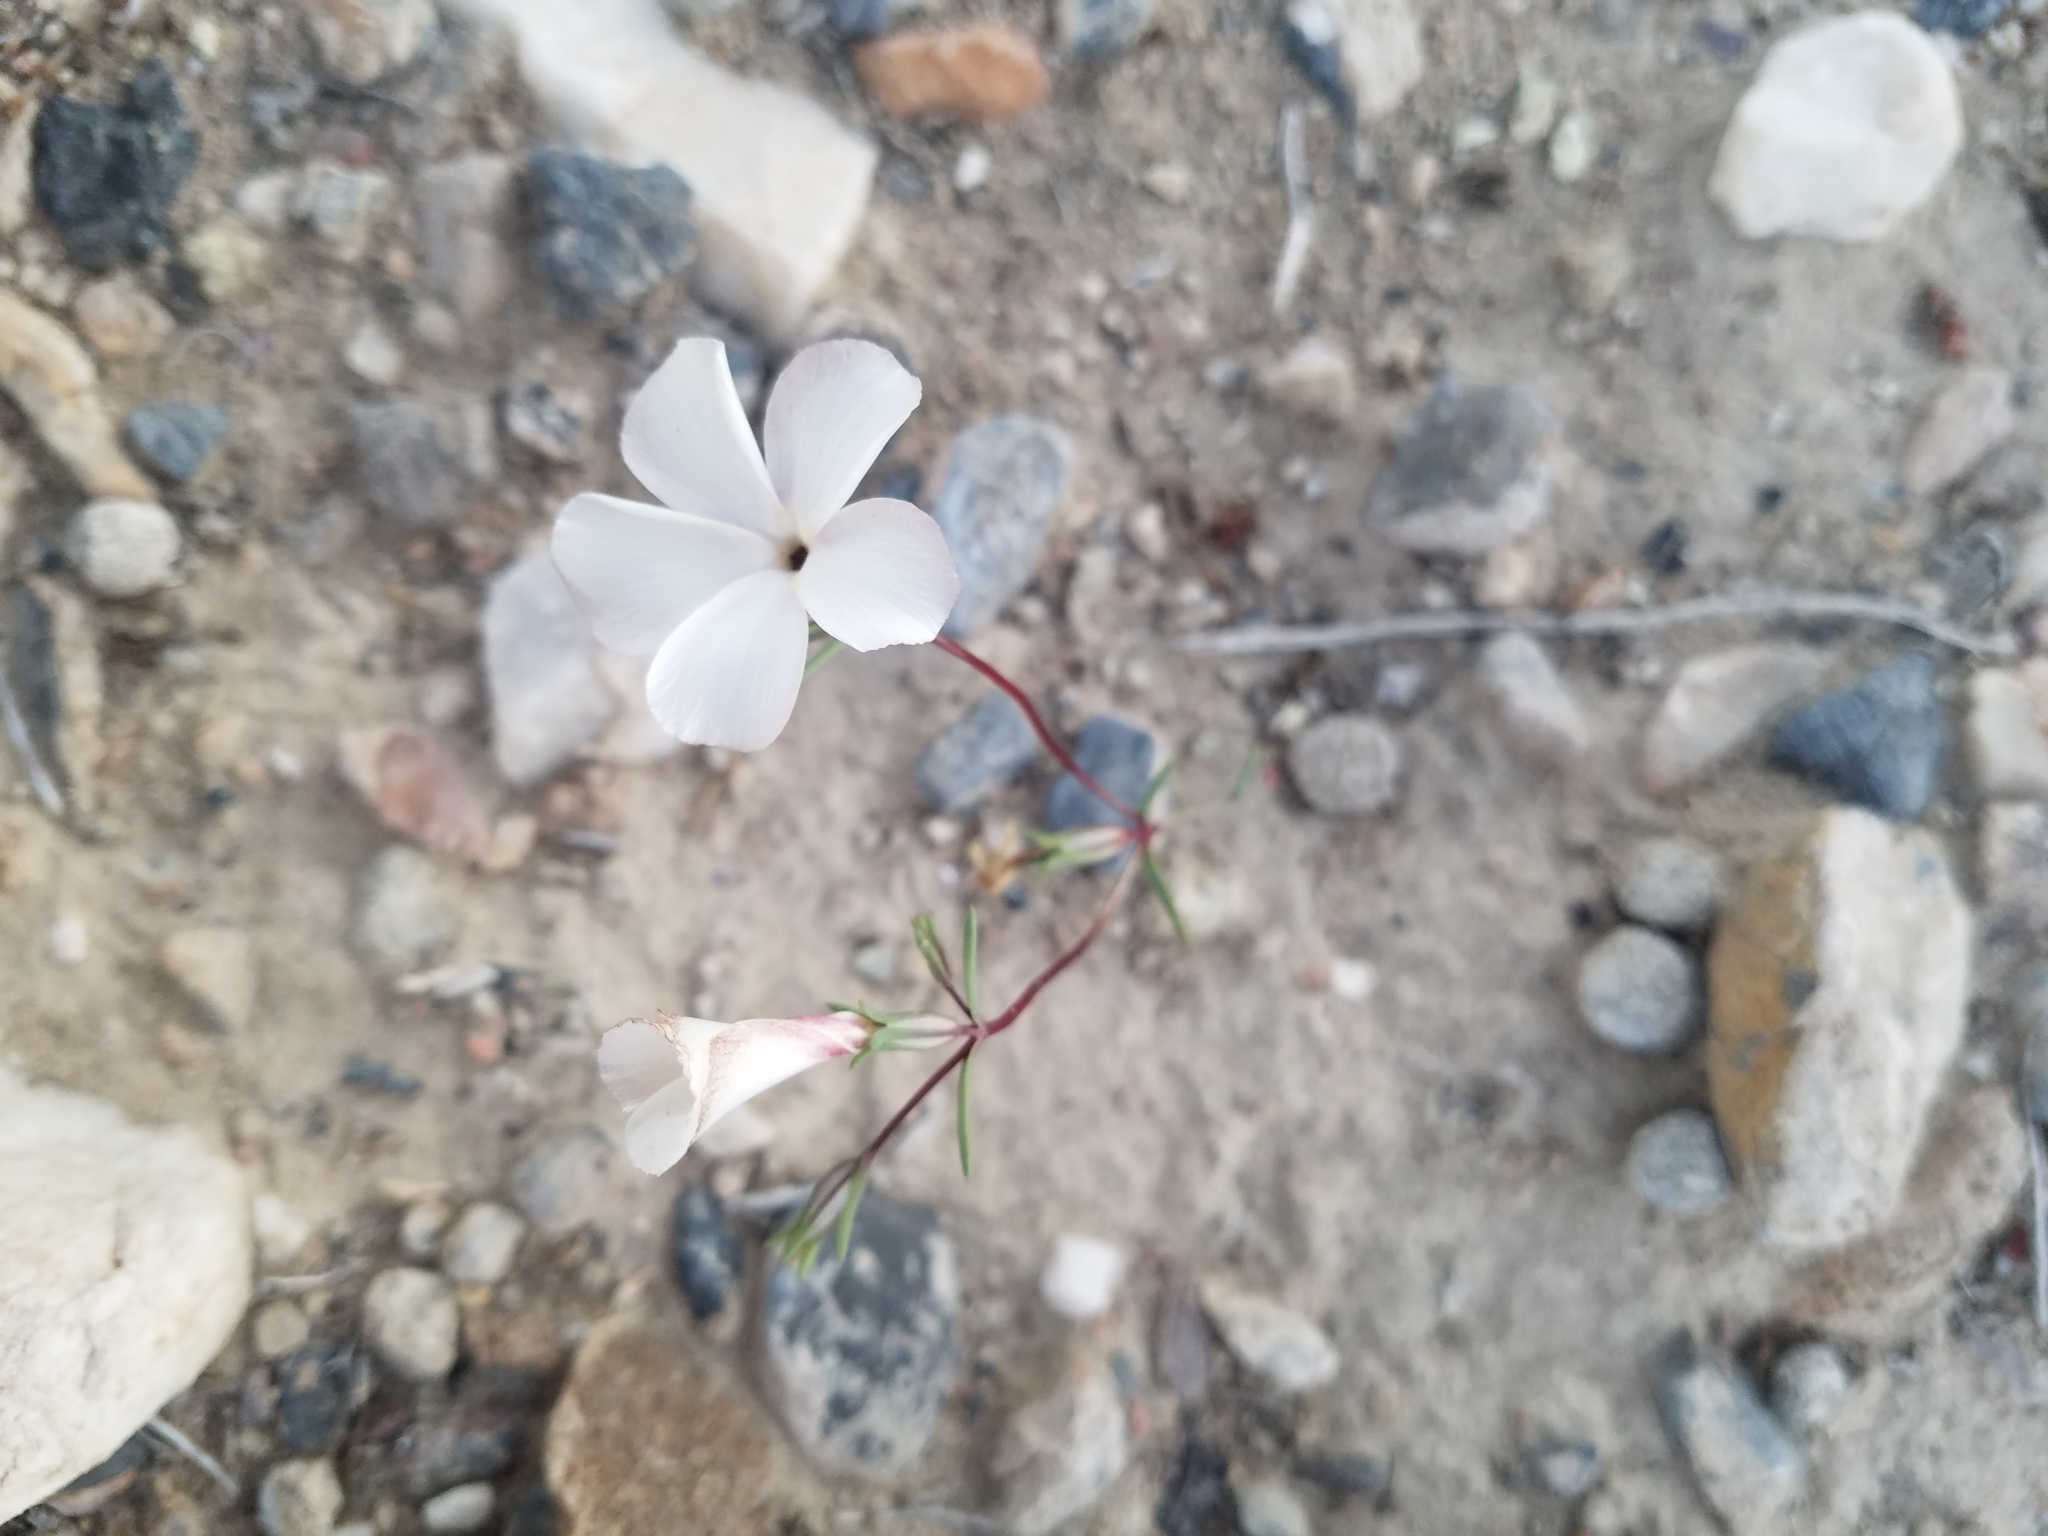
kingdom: Plantae
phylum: Tracheophyta
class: Magnoliopsida
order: Ericales
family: Polemoniaceae
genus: Linanthus
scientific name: Linanthus dichotomus
